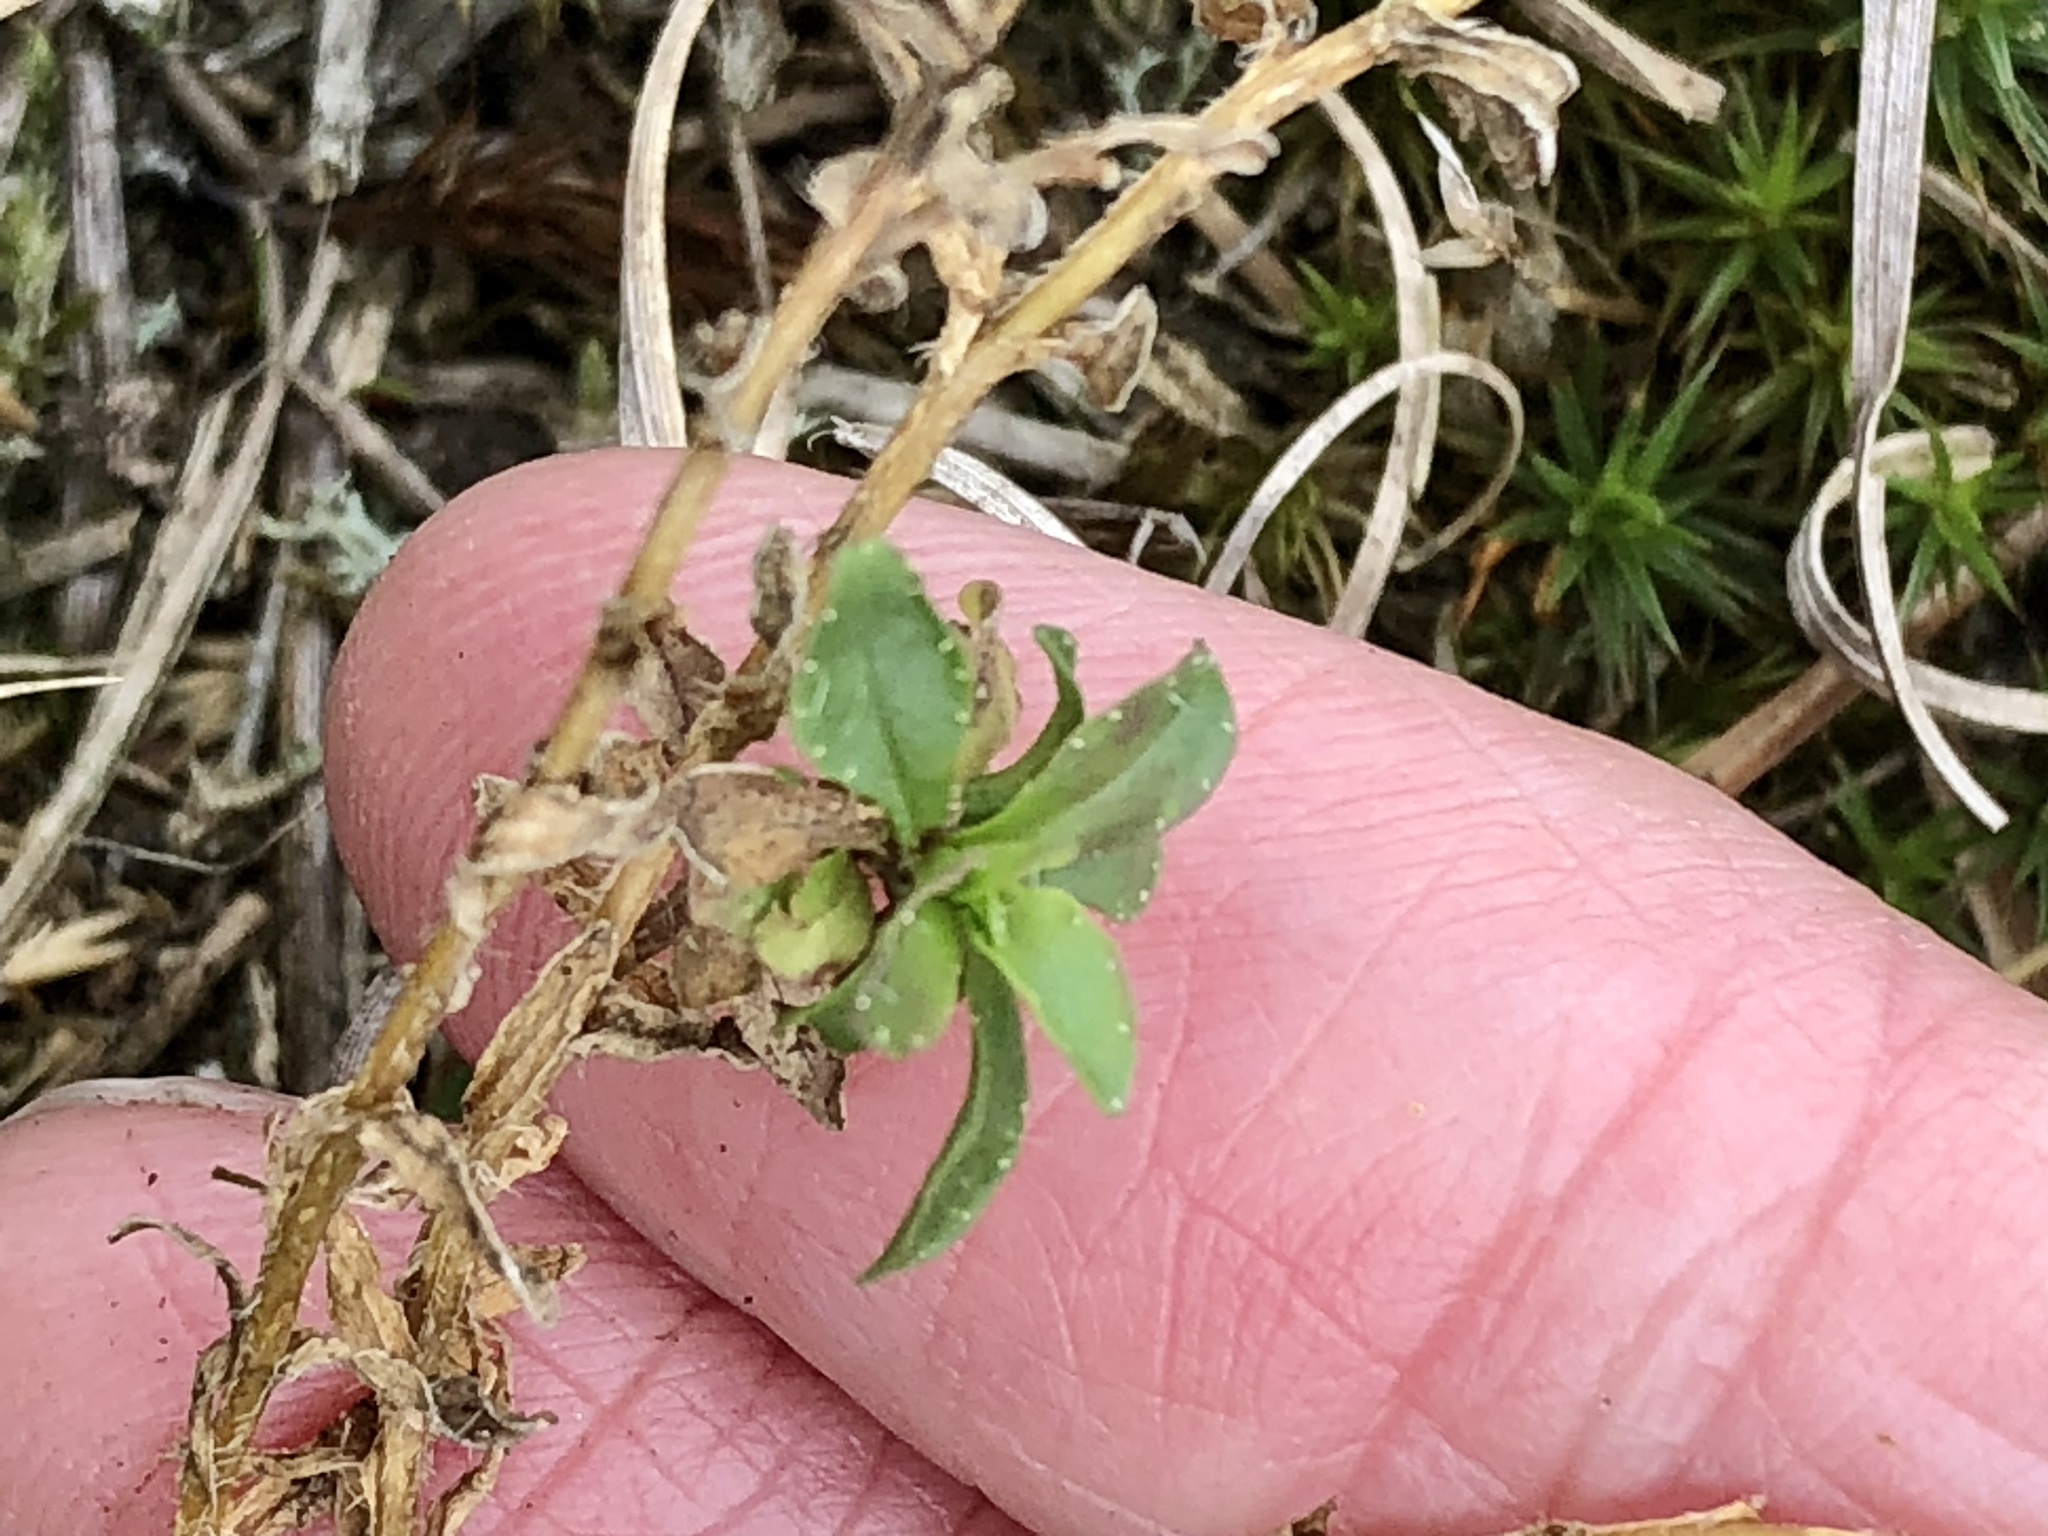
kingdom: Plantae
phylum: Tracheophyta
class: Magnoliopsida
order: Asterales
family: Campanulaceae
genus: Jasione
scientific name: Jasione montana
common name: Sheep's-bit
